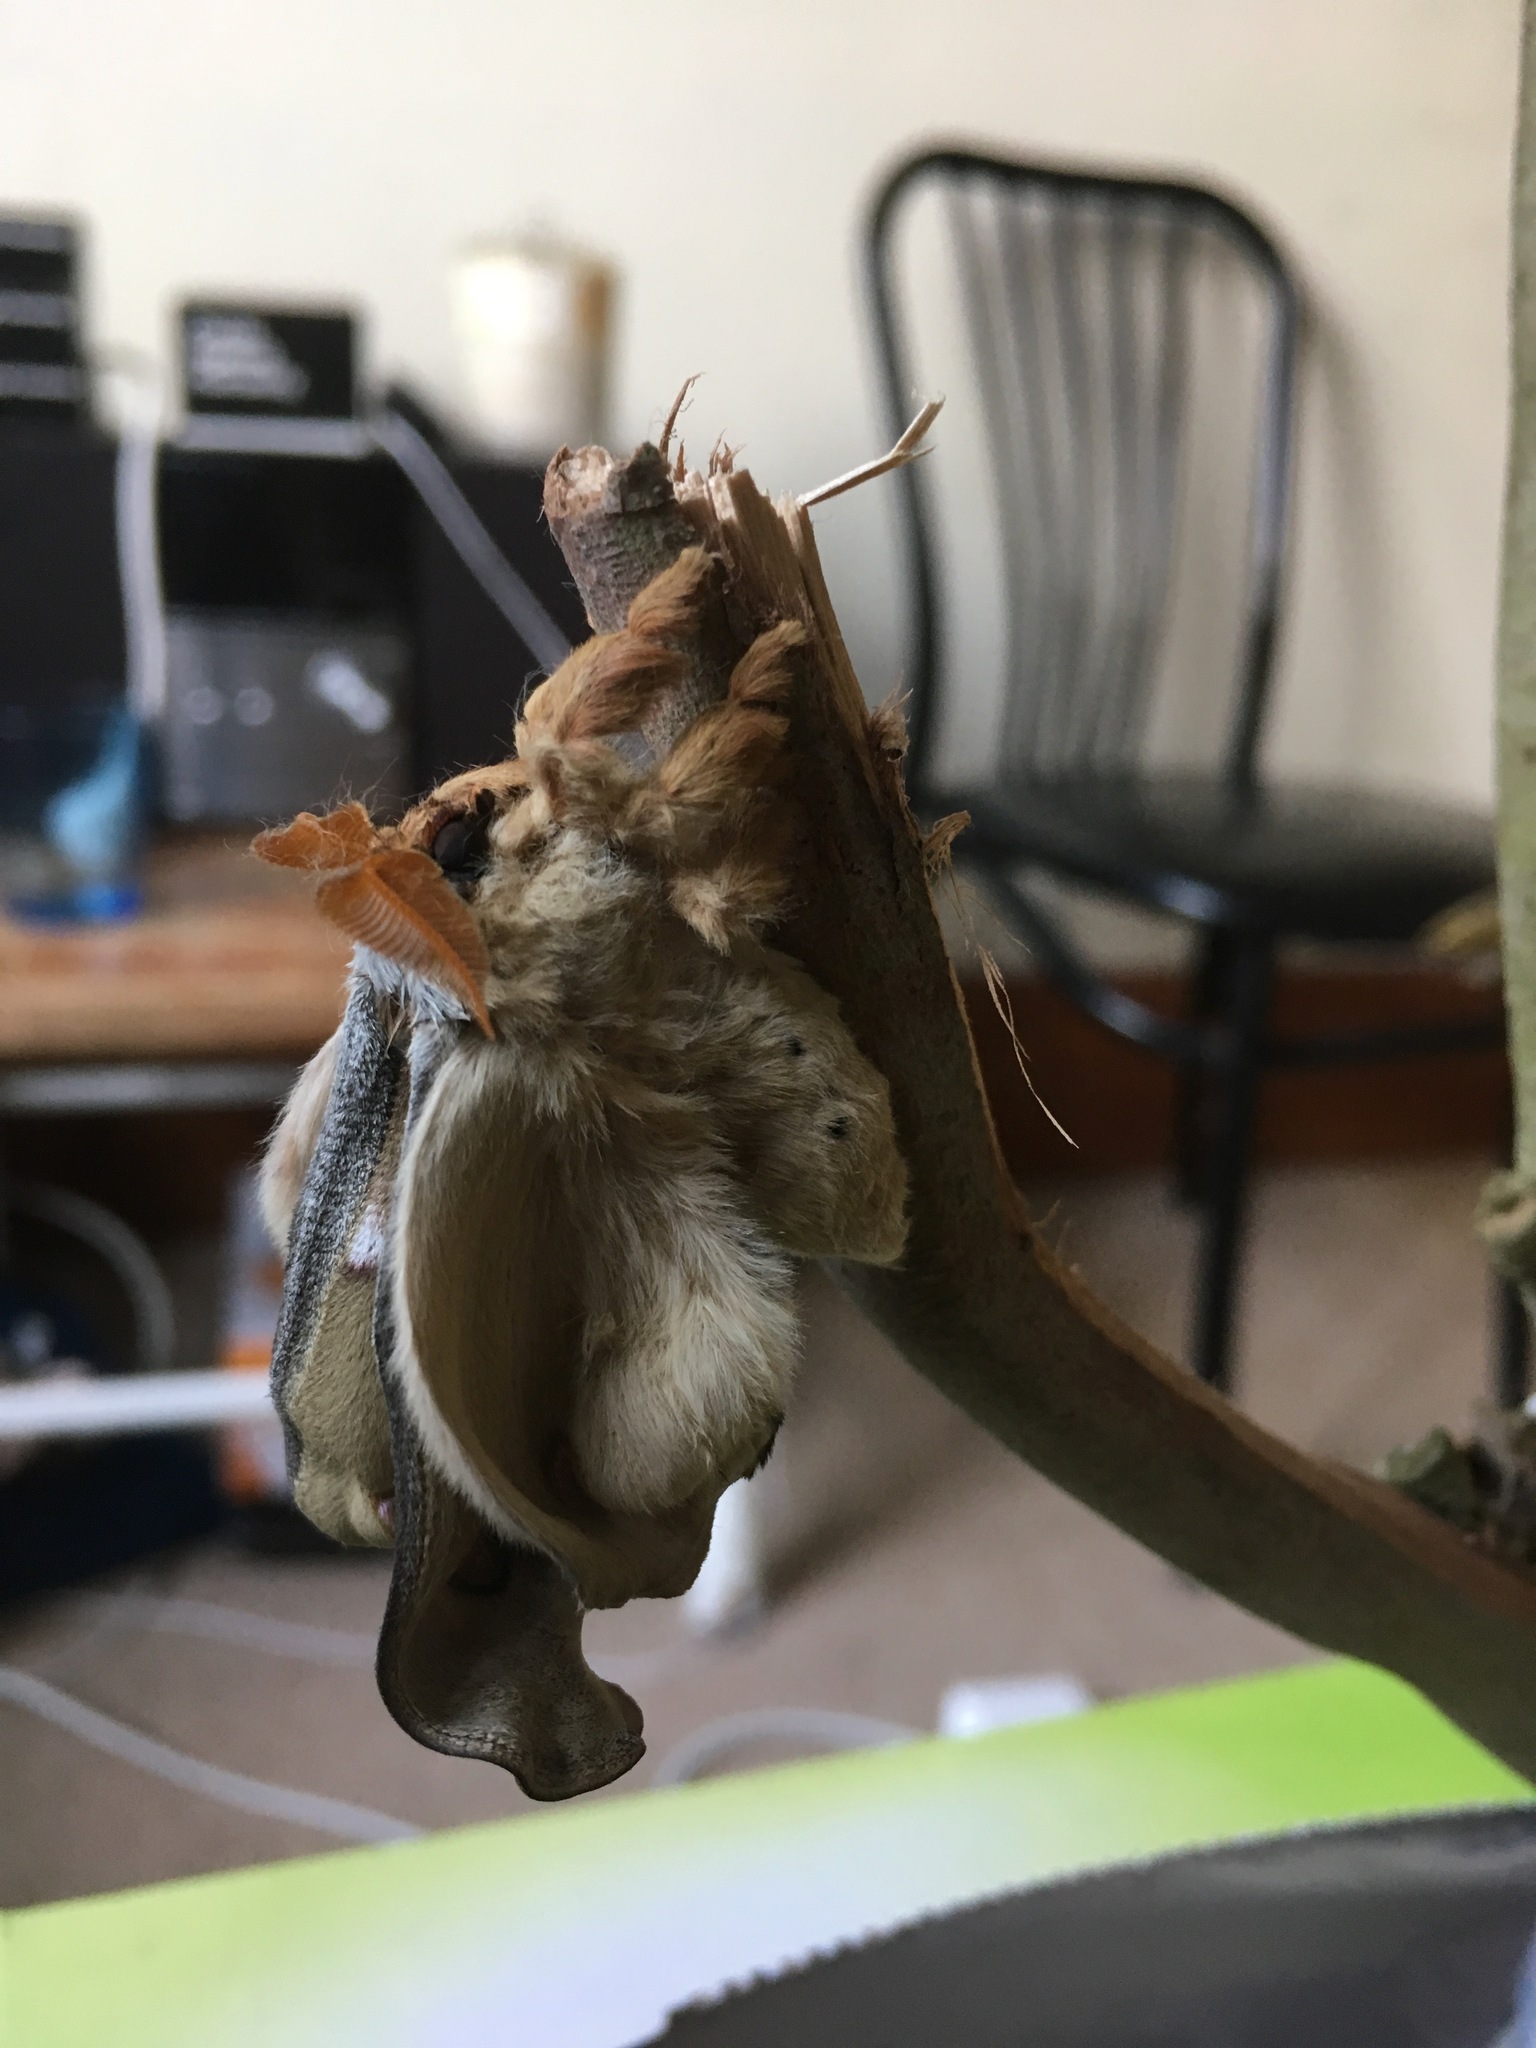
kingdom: Animalia
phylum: Arthropoda
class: Insecta
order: Lepidoptera
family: Saturniidae
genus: Opodiphthera
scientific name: Opodiphthera
